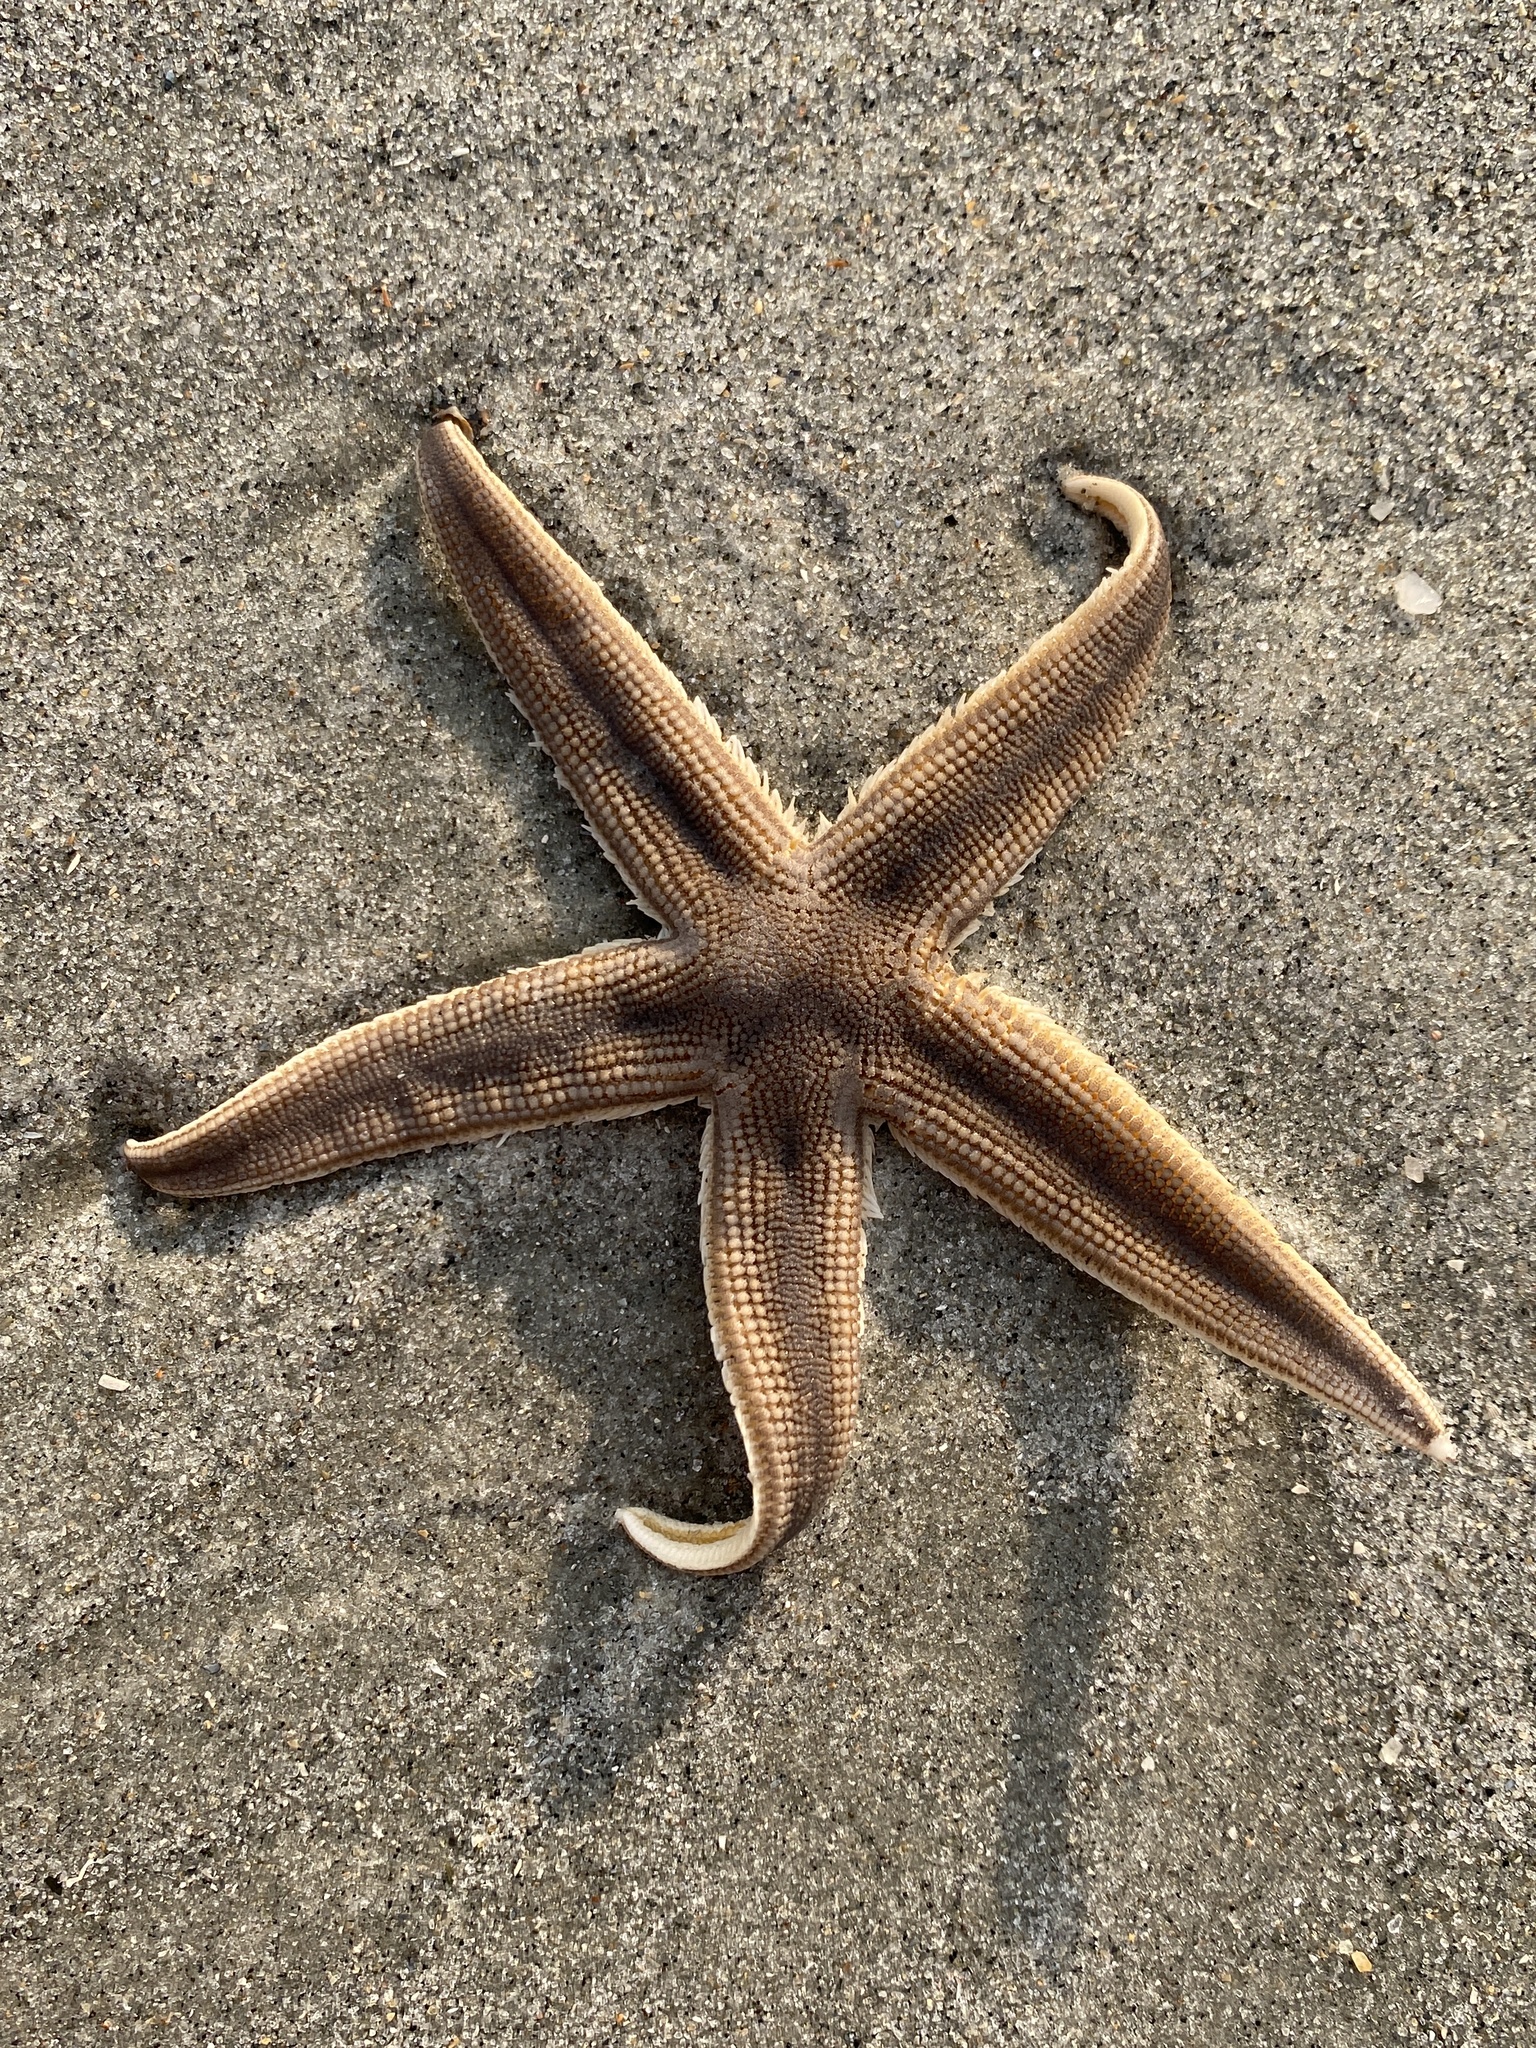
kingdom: Animalia
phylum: Echinodermata
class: Asteroidea
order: Paxillosida
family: Luidiidae
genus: Luidia
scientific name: Luidia clathrata
